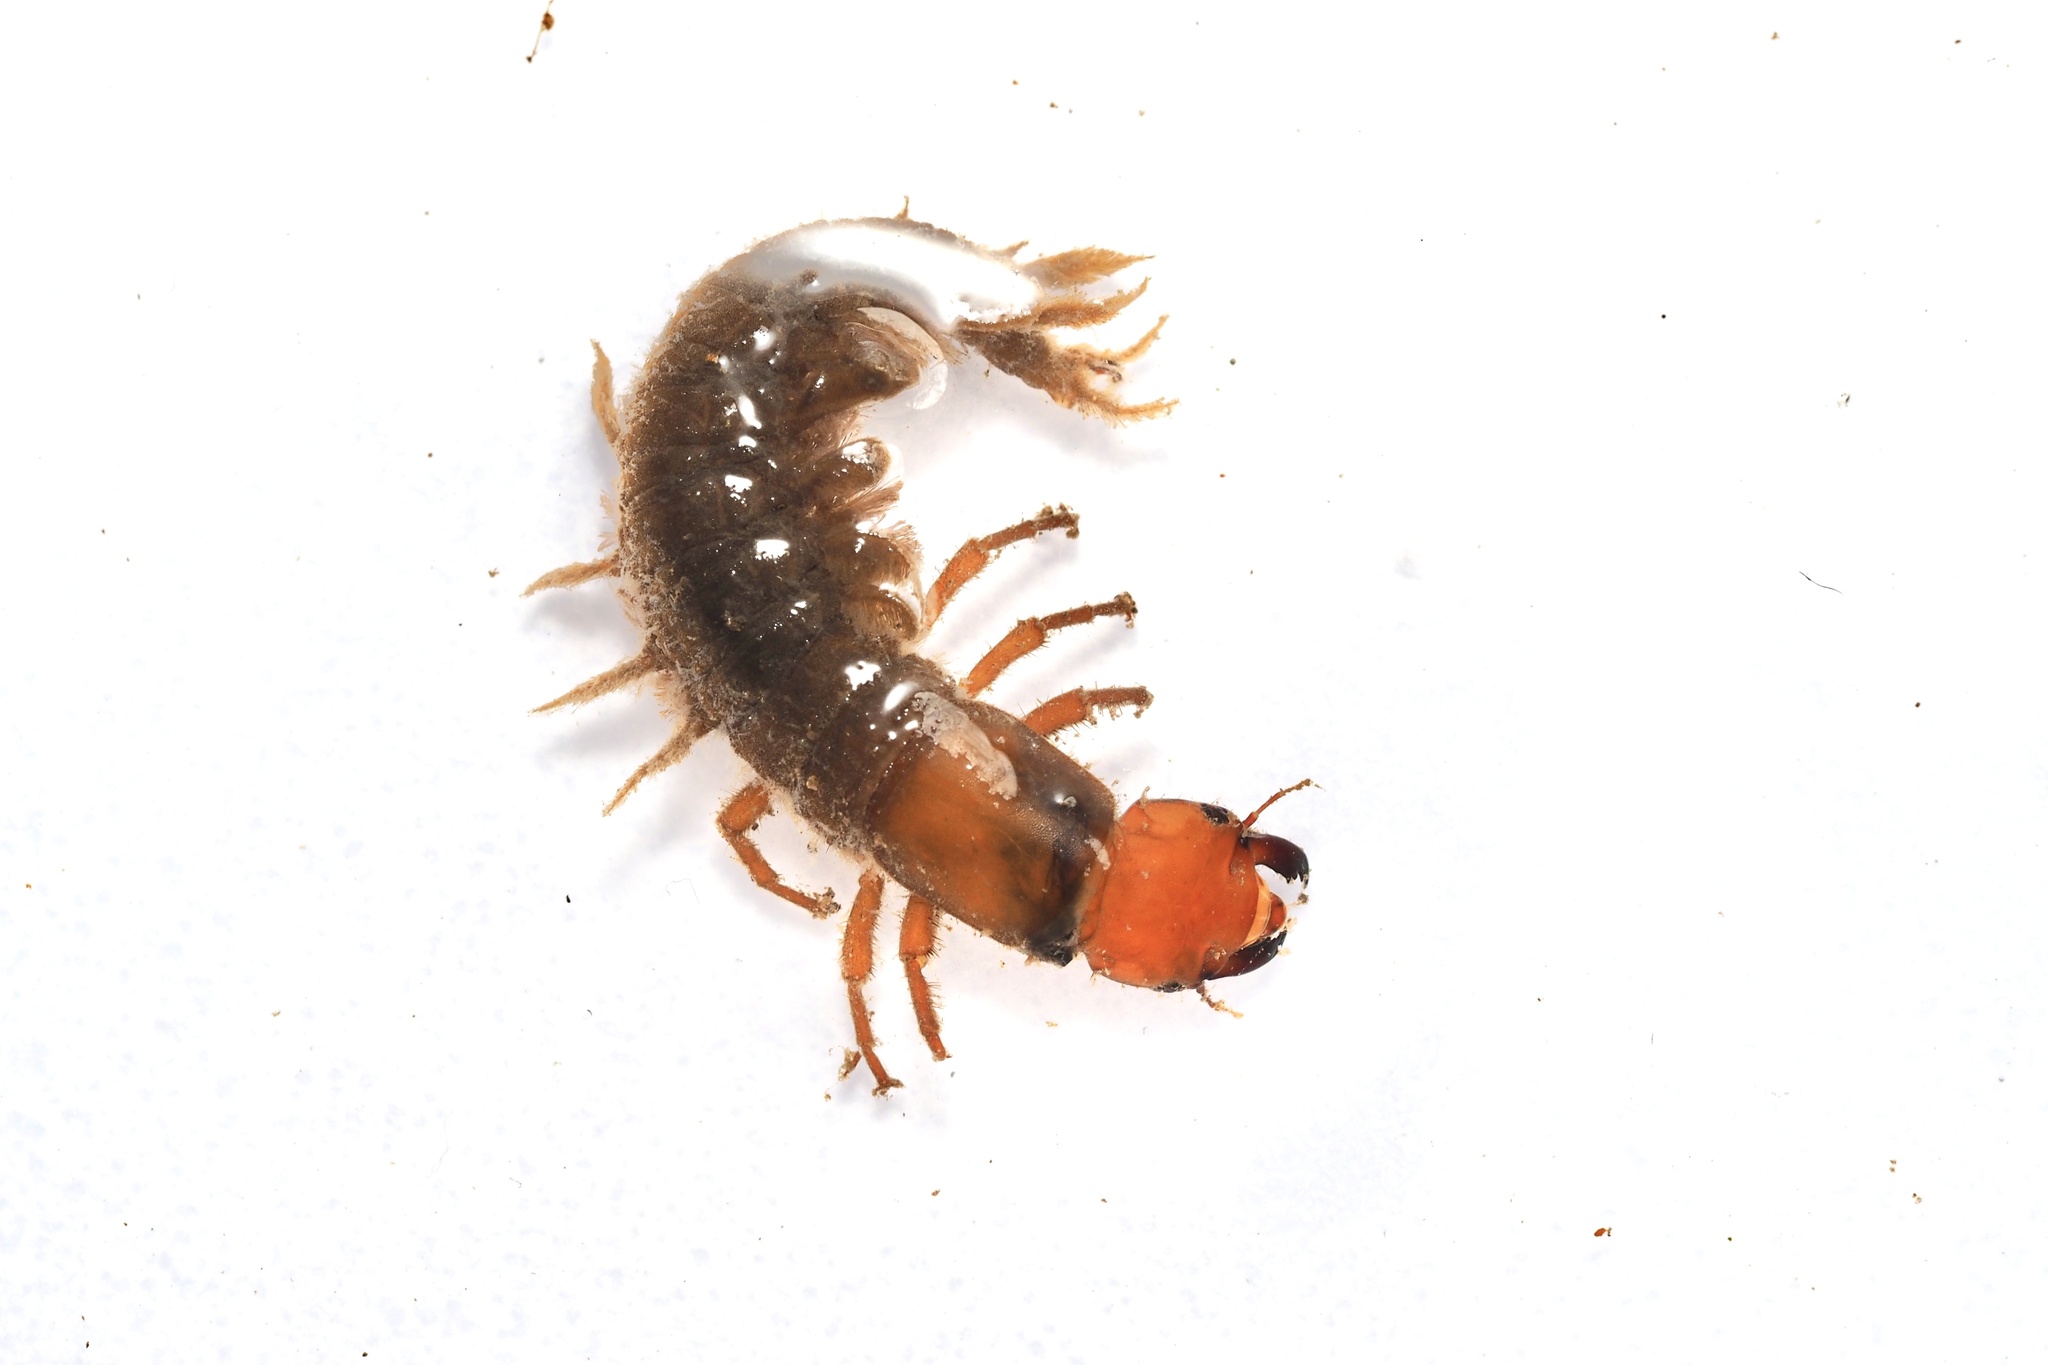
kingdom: Animalia
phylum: Arthropoda
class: Insecta
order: Megaloptera
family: Corydalidae
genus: Protohermes
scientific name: Protohermes grandis
